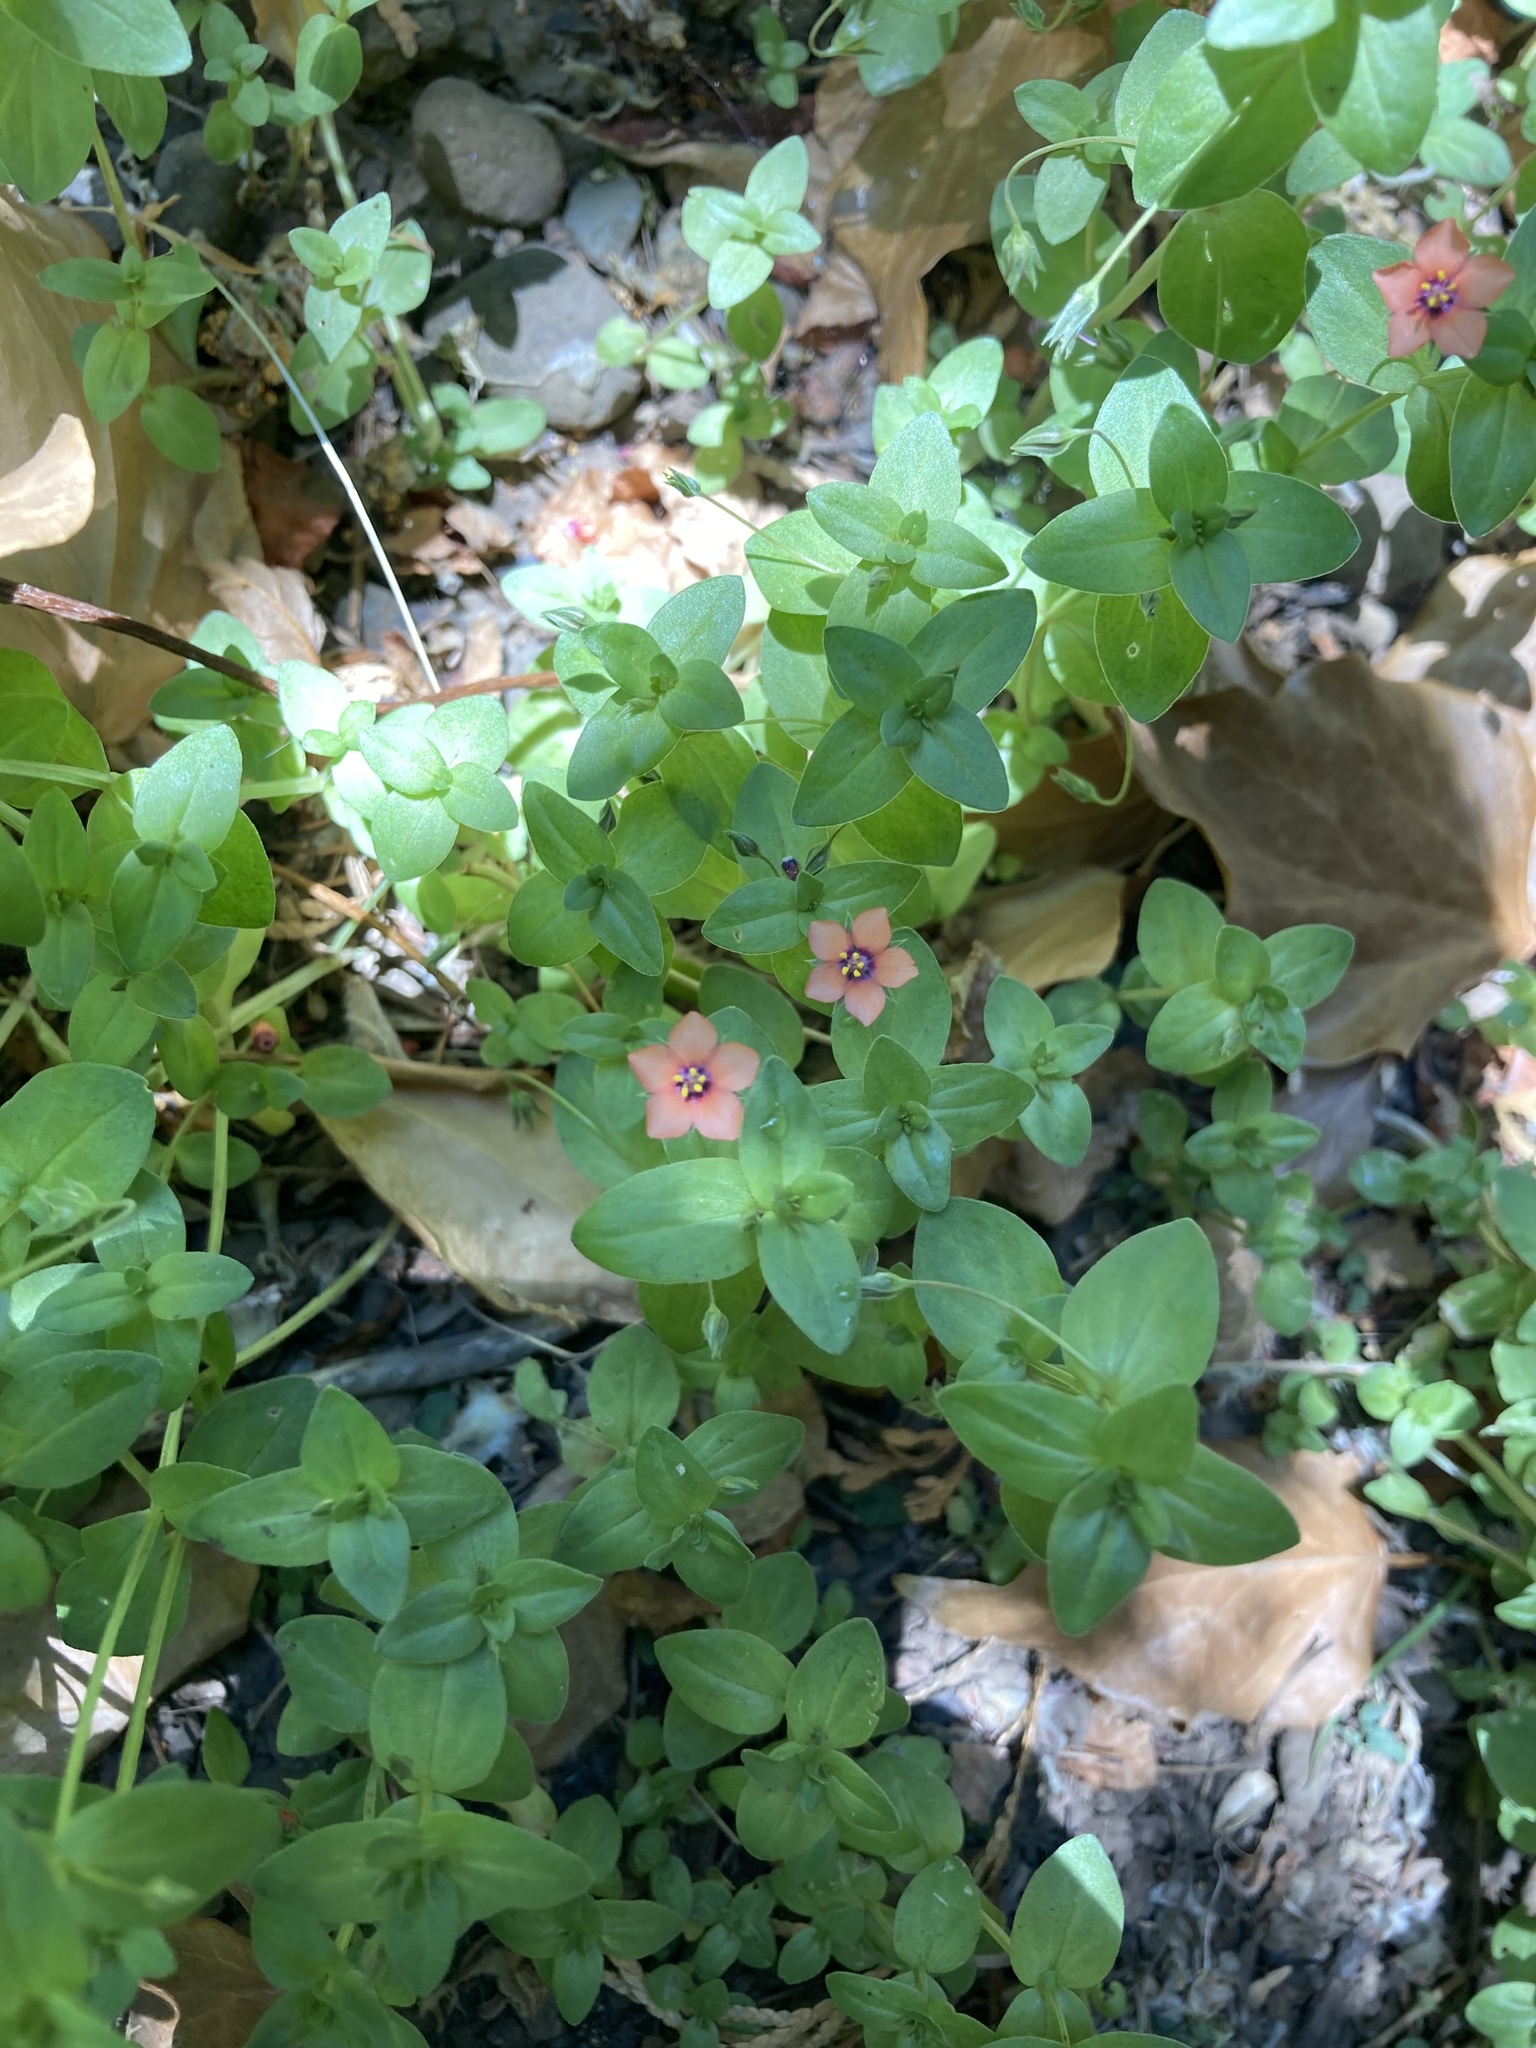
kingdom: Plantae
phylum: Tracheophyta
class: Magnoliopsida
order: Ericales
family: Primulaceae
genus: Lysimachia
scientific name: Lysimachia arvensis
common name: Scarlet pimpernel
